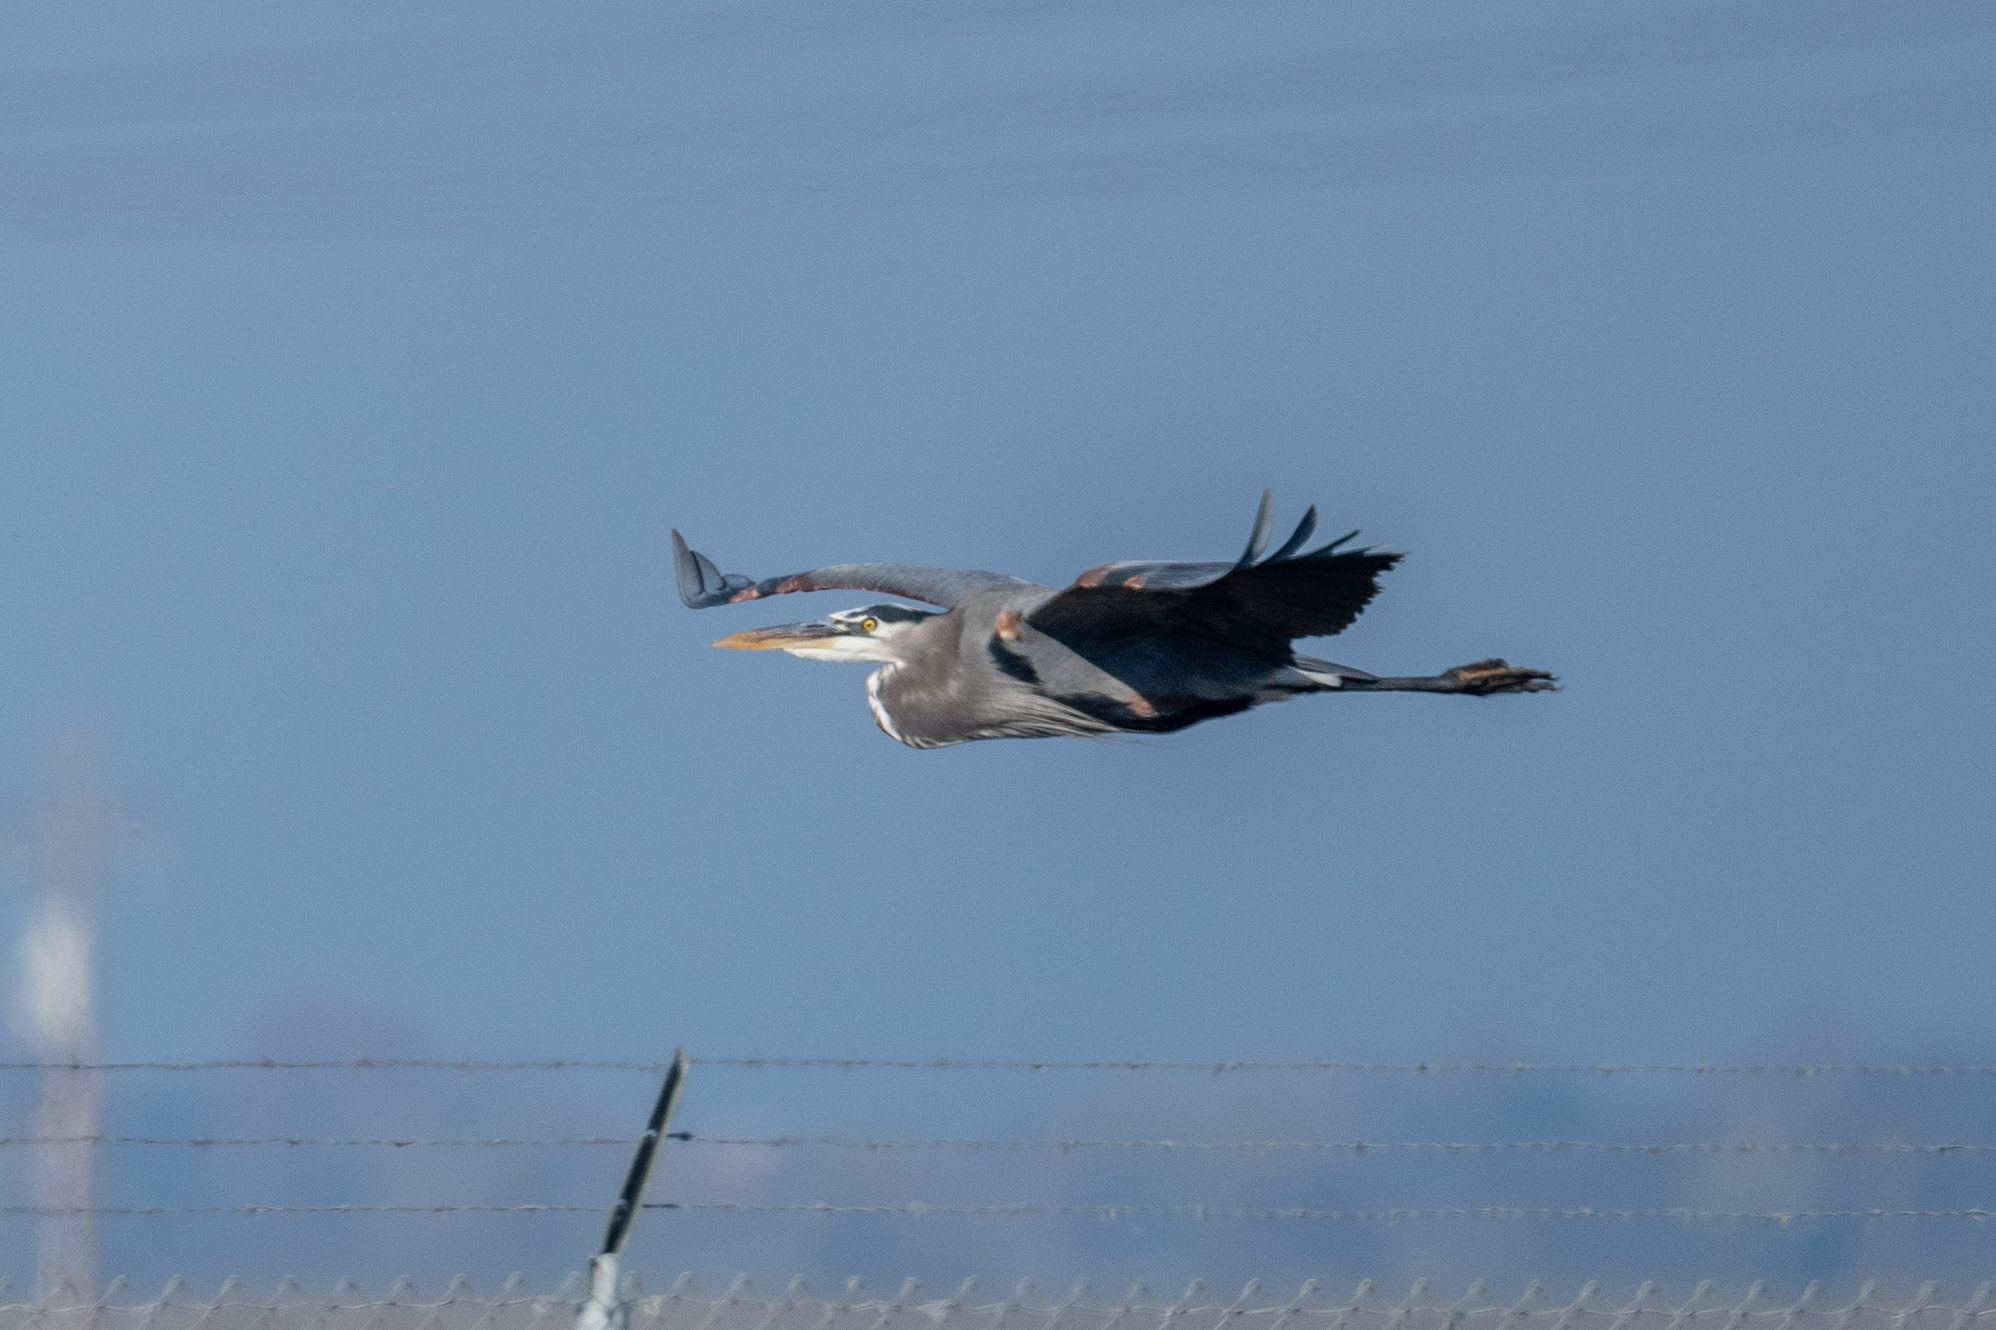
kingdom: Animalia
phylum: Chordata
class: Aves
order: Pelecaniformes
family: Ardeidae
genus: Ardea
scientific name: Ardea herodias
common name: Great blue heron
